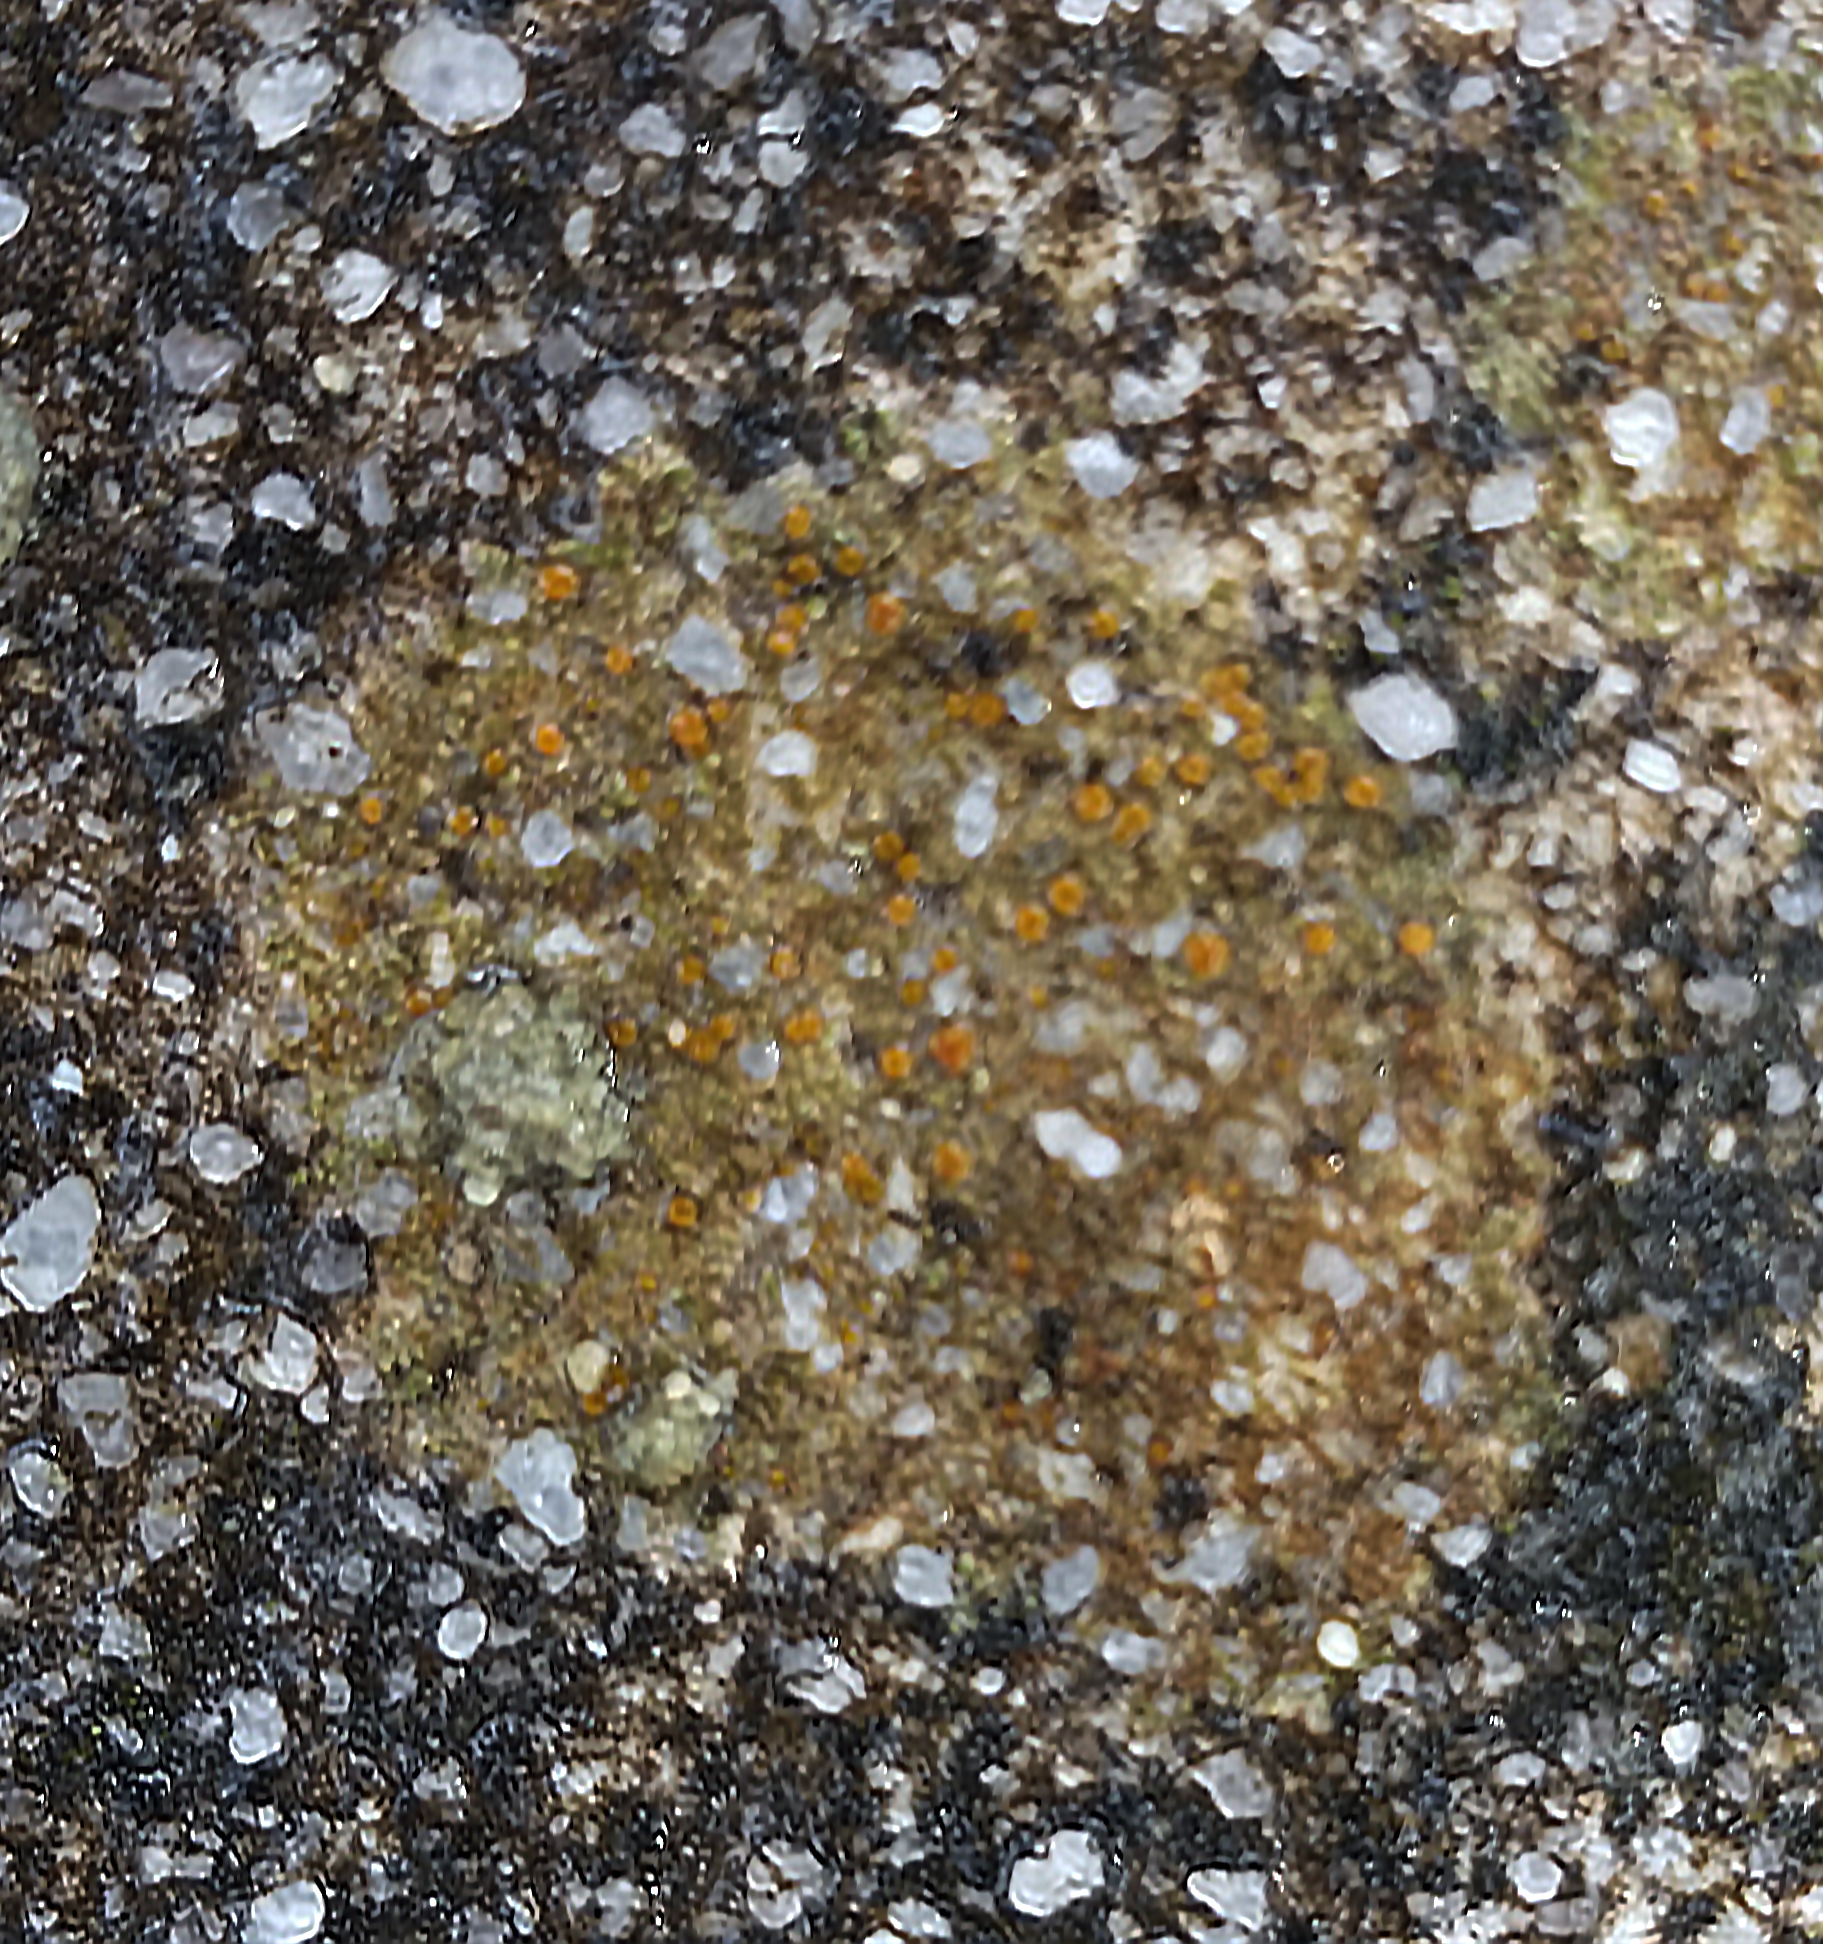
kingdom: Fungi
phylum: Ascomycota
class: Lecanoromycetes
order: Lecanorales
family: Psoraceae
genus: Protoblastenia
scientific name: Protoblastenia rupestris
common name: Chewing gum lichen
